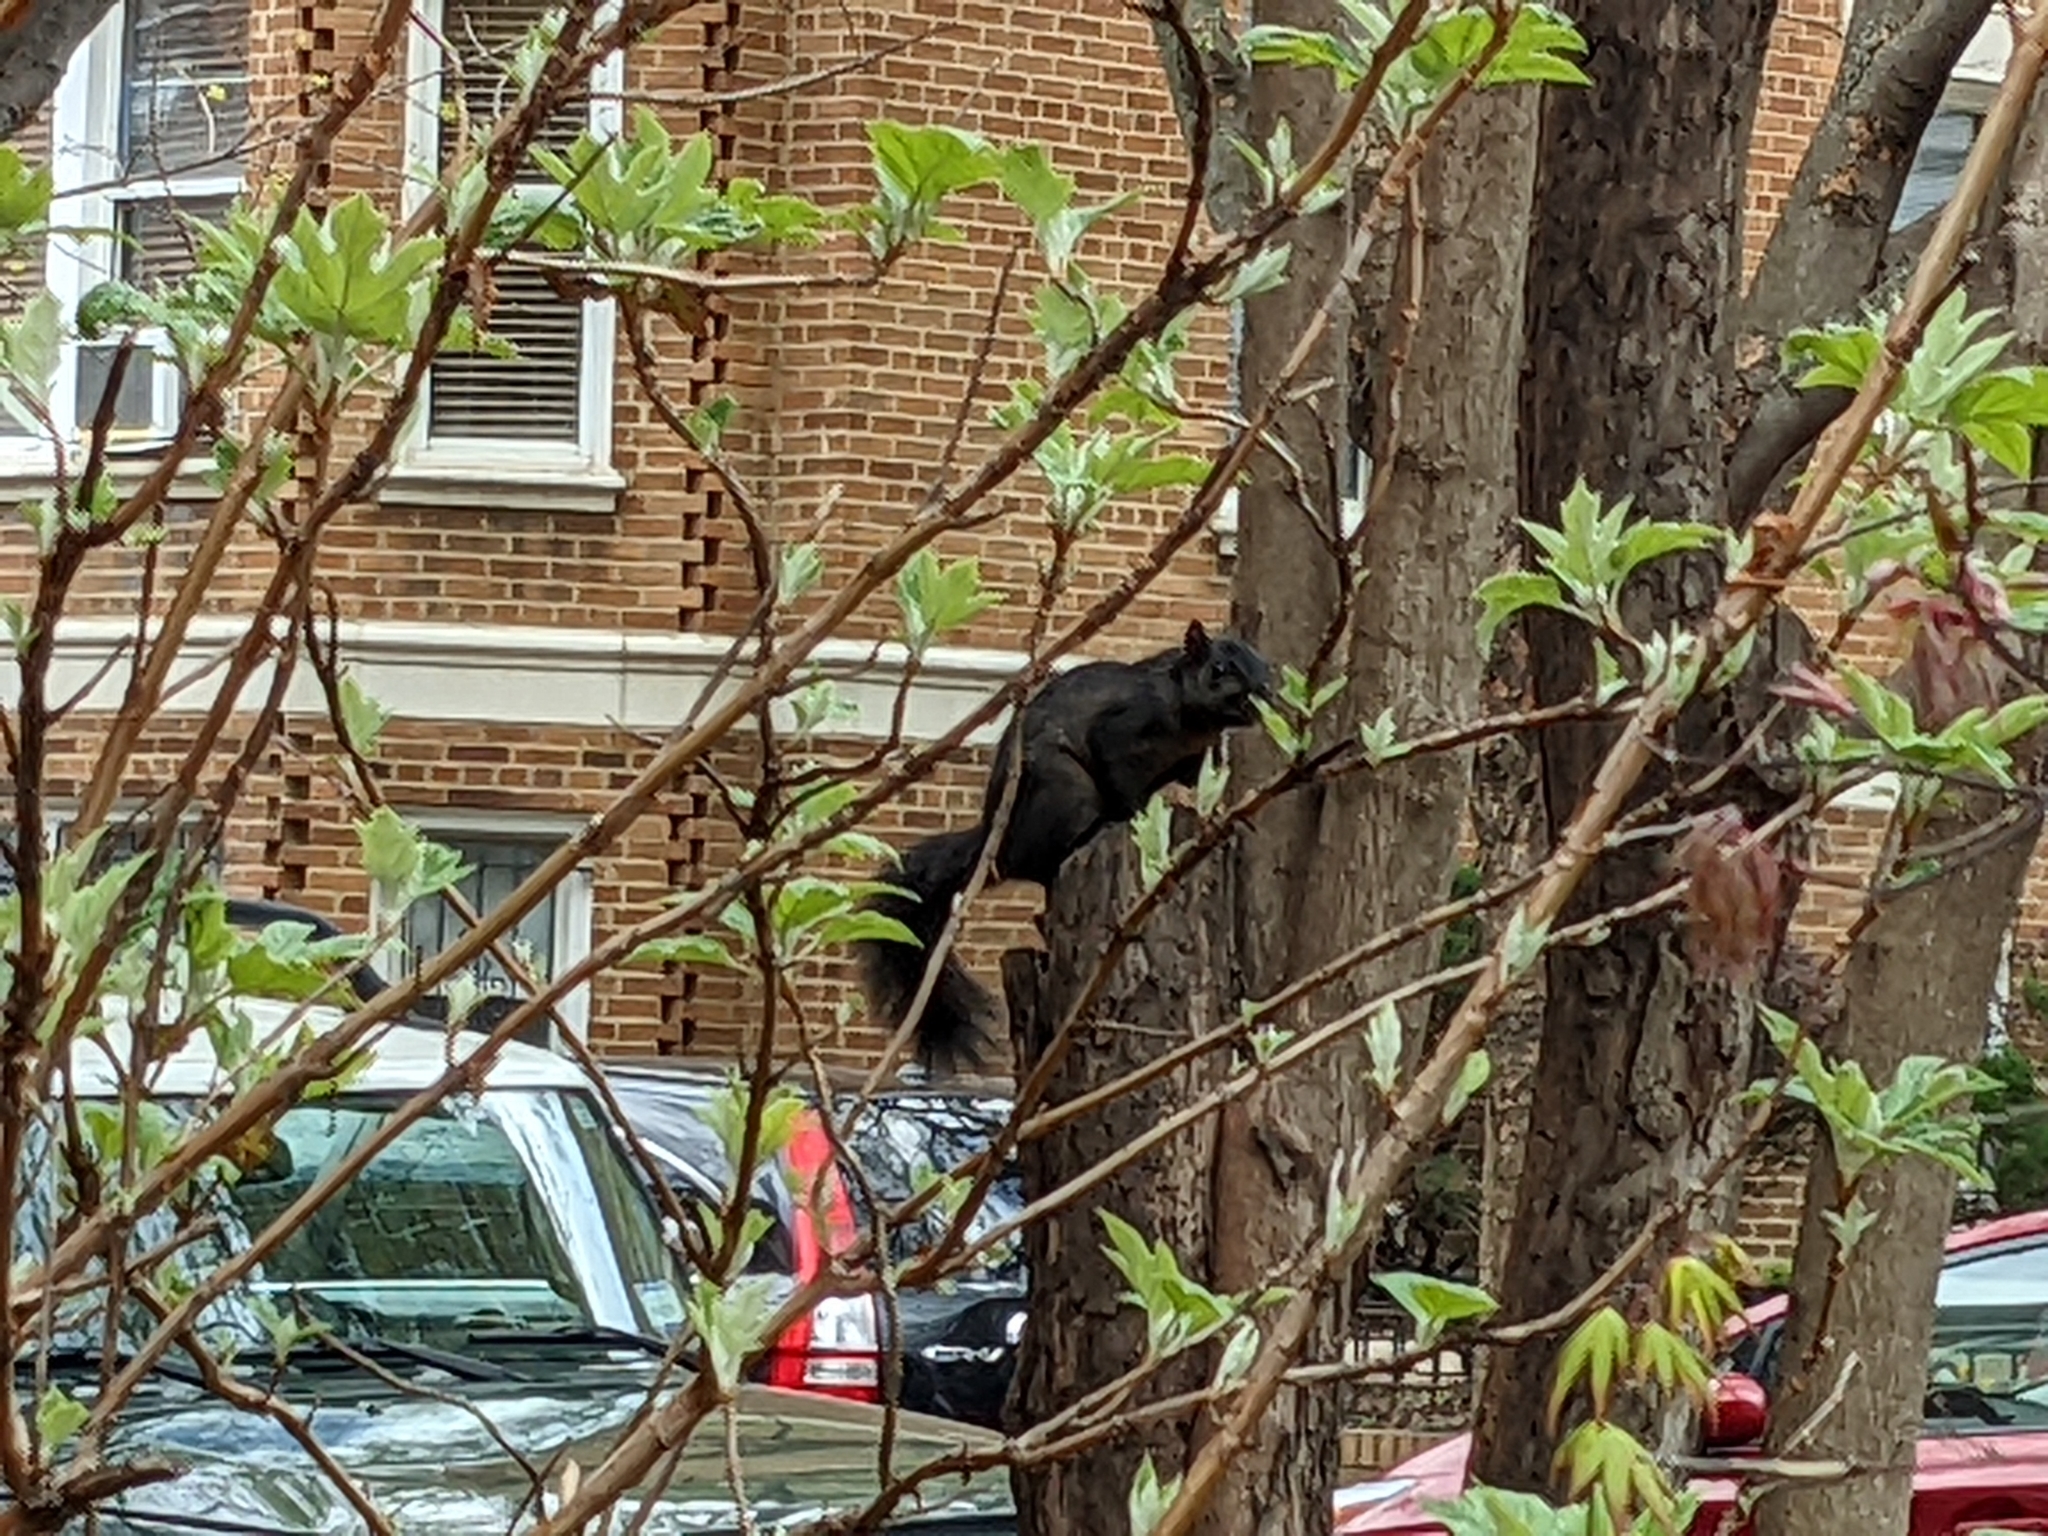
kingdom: Animalia
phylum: Chordata
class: Mammalia
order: Rodentia
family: Sciuridae
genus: Sciurus
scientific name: Sciurus carolinensis
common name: Eastern gray squirrel
